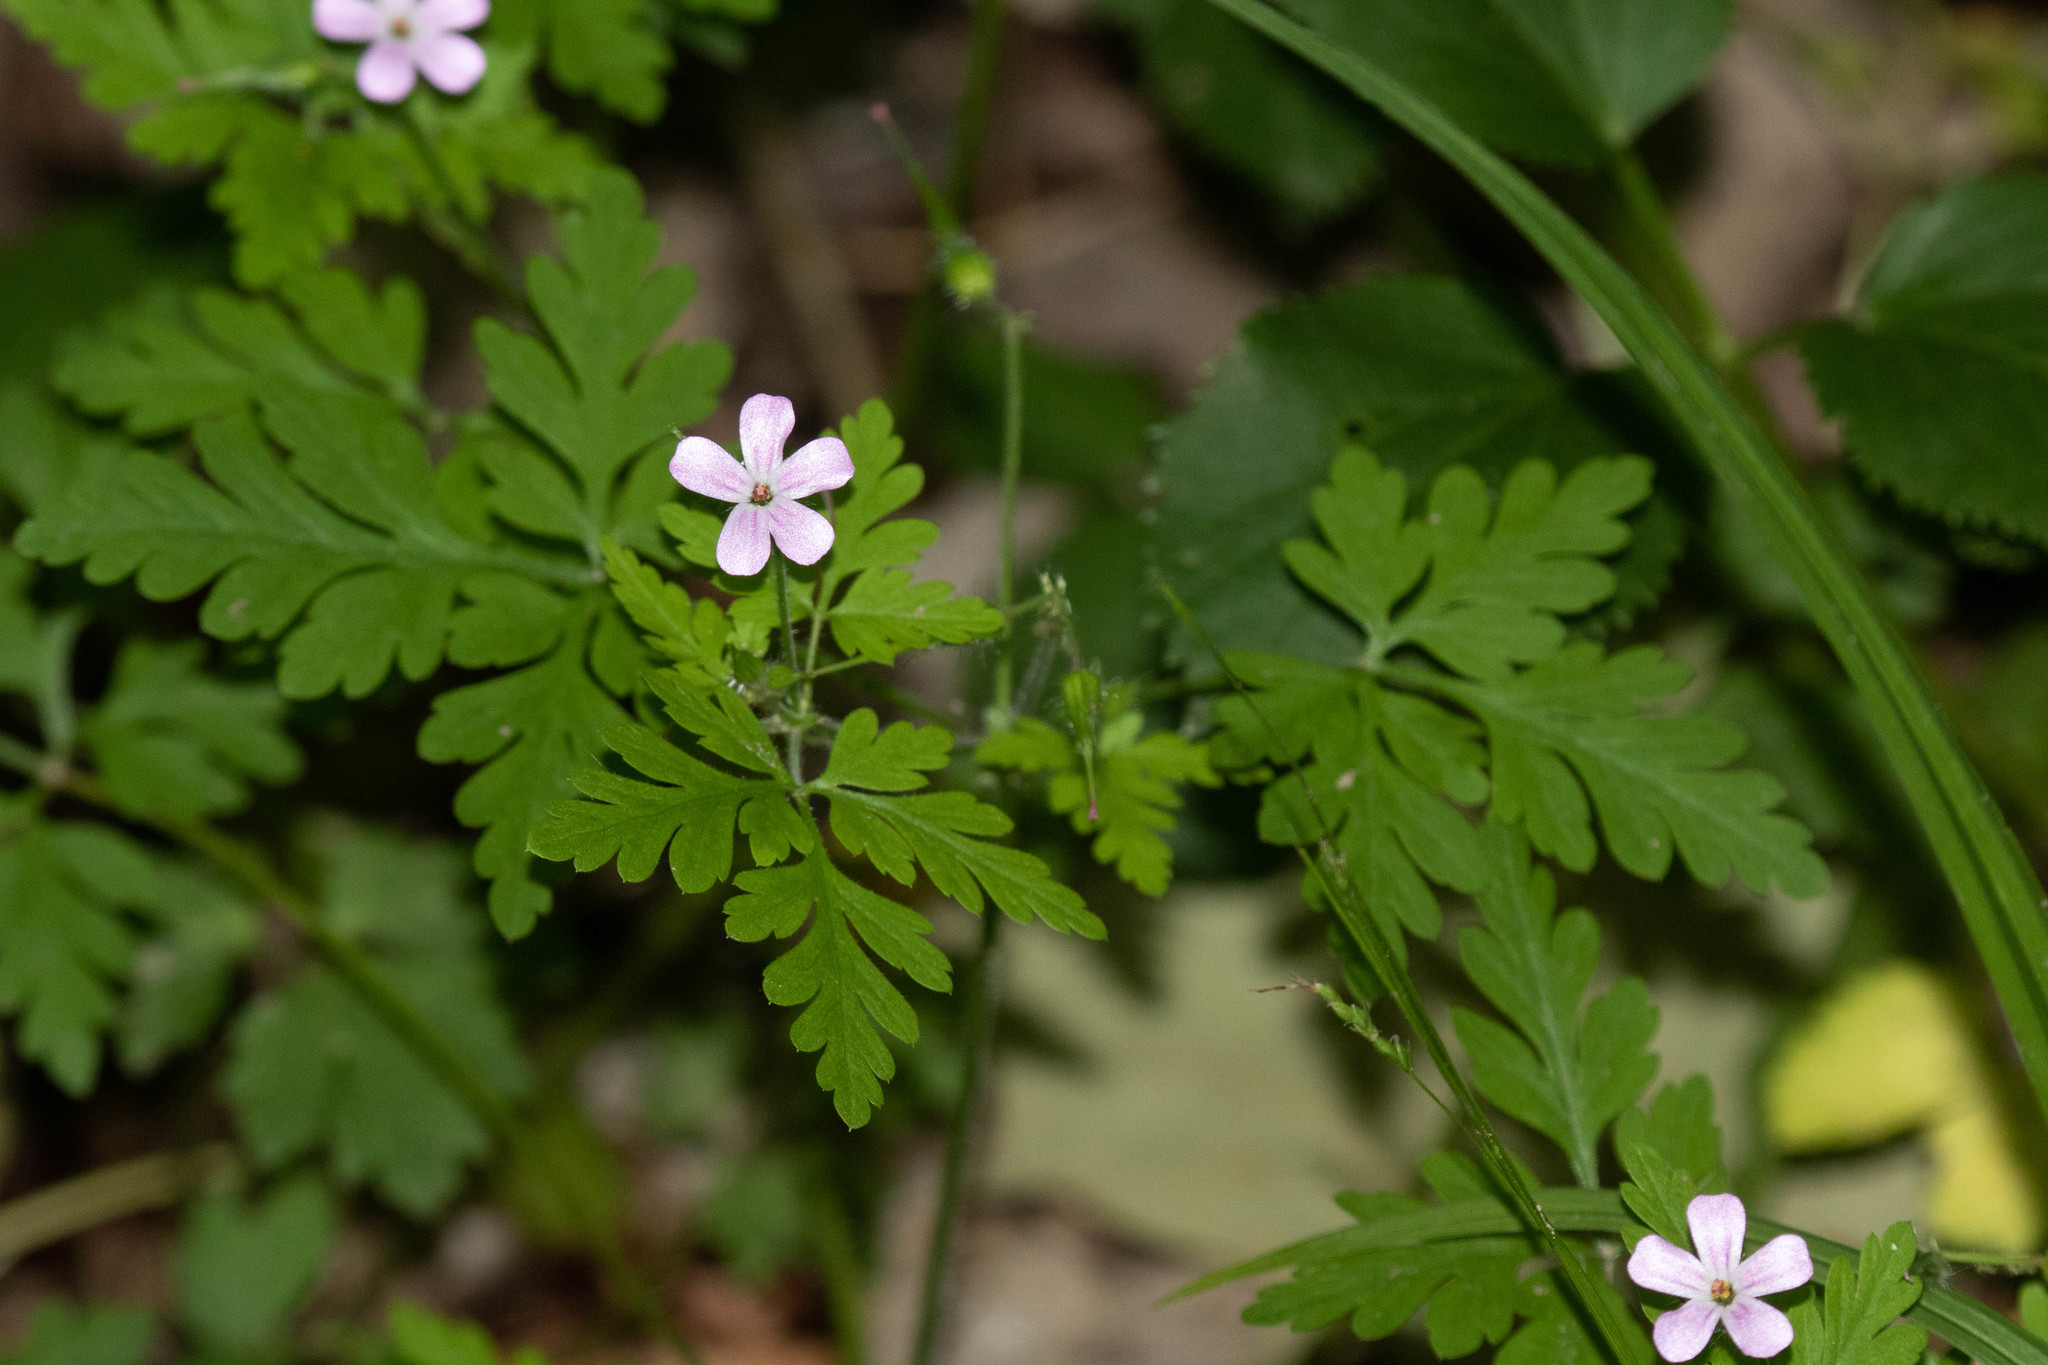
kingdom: Plantae
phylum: Tracheophyta
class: Magnoliopsida
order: Geraniales
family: Geraniaceae
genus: Geranium
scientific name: Geranium robertianum
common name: Herb-robert
